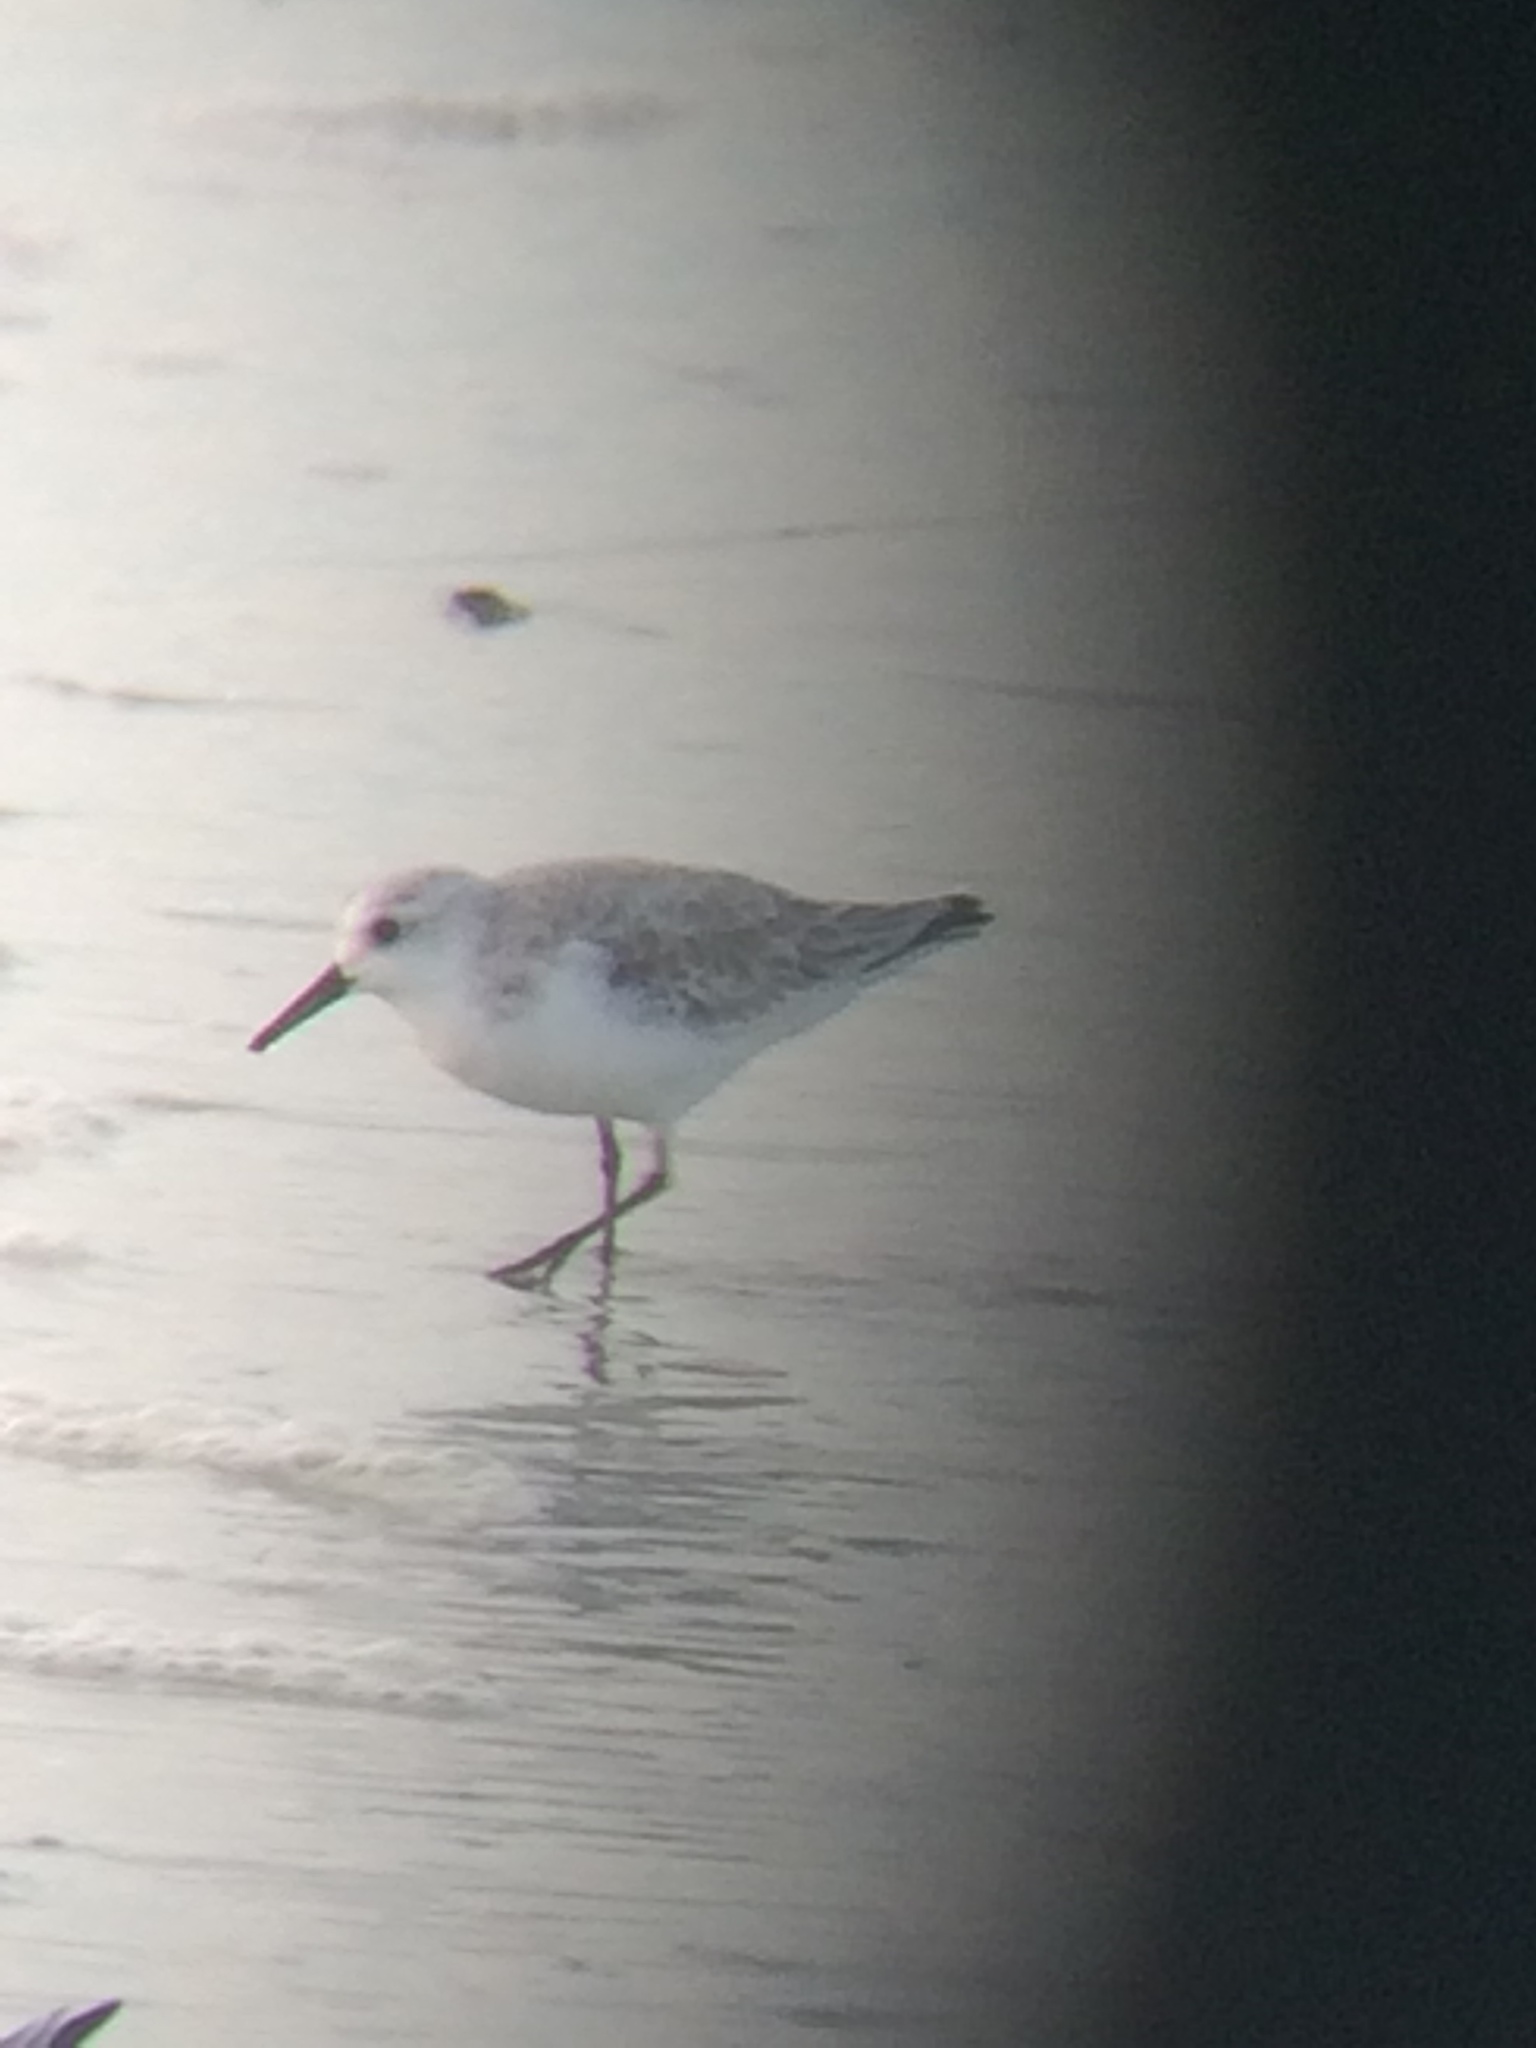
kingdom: Animalia
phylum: Chordata
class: Aves
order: Charadriiformes
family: Scolopacidae
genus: Calidris
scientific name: Calidris alba
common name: Sanderling
